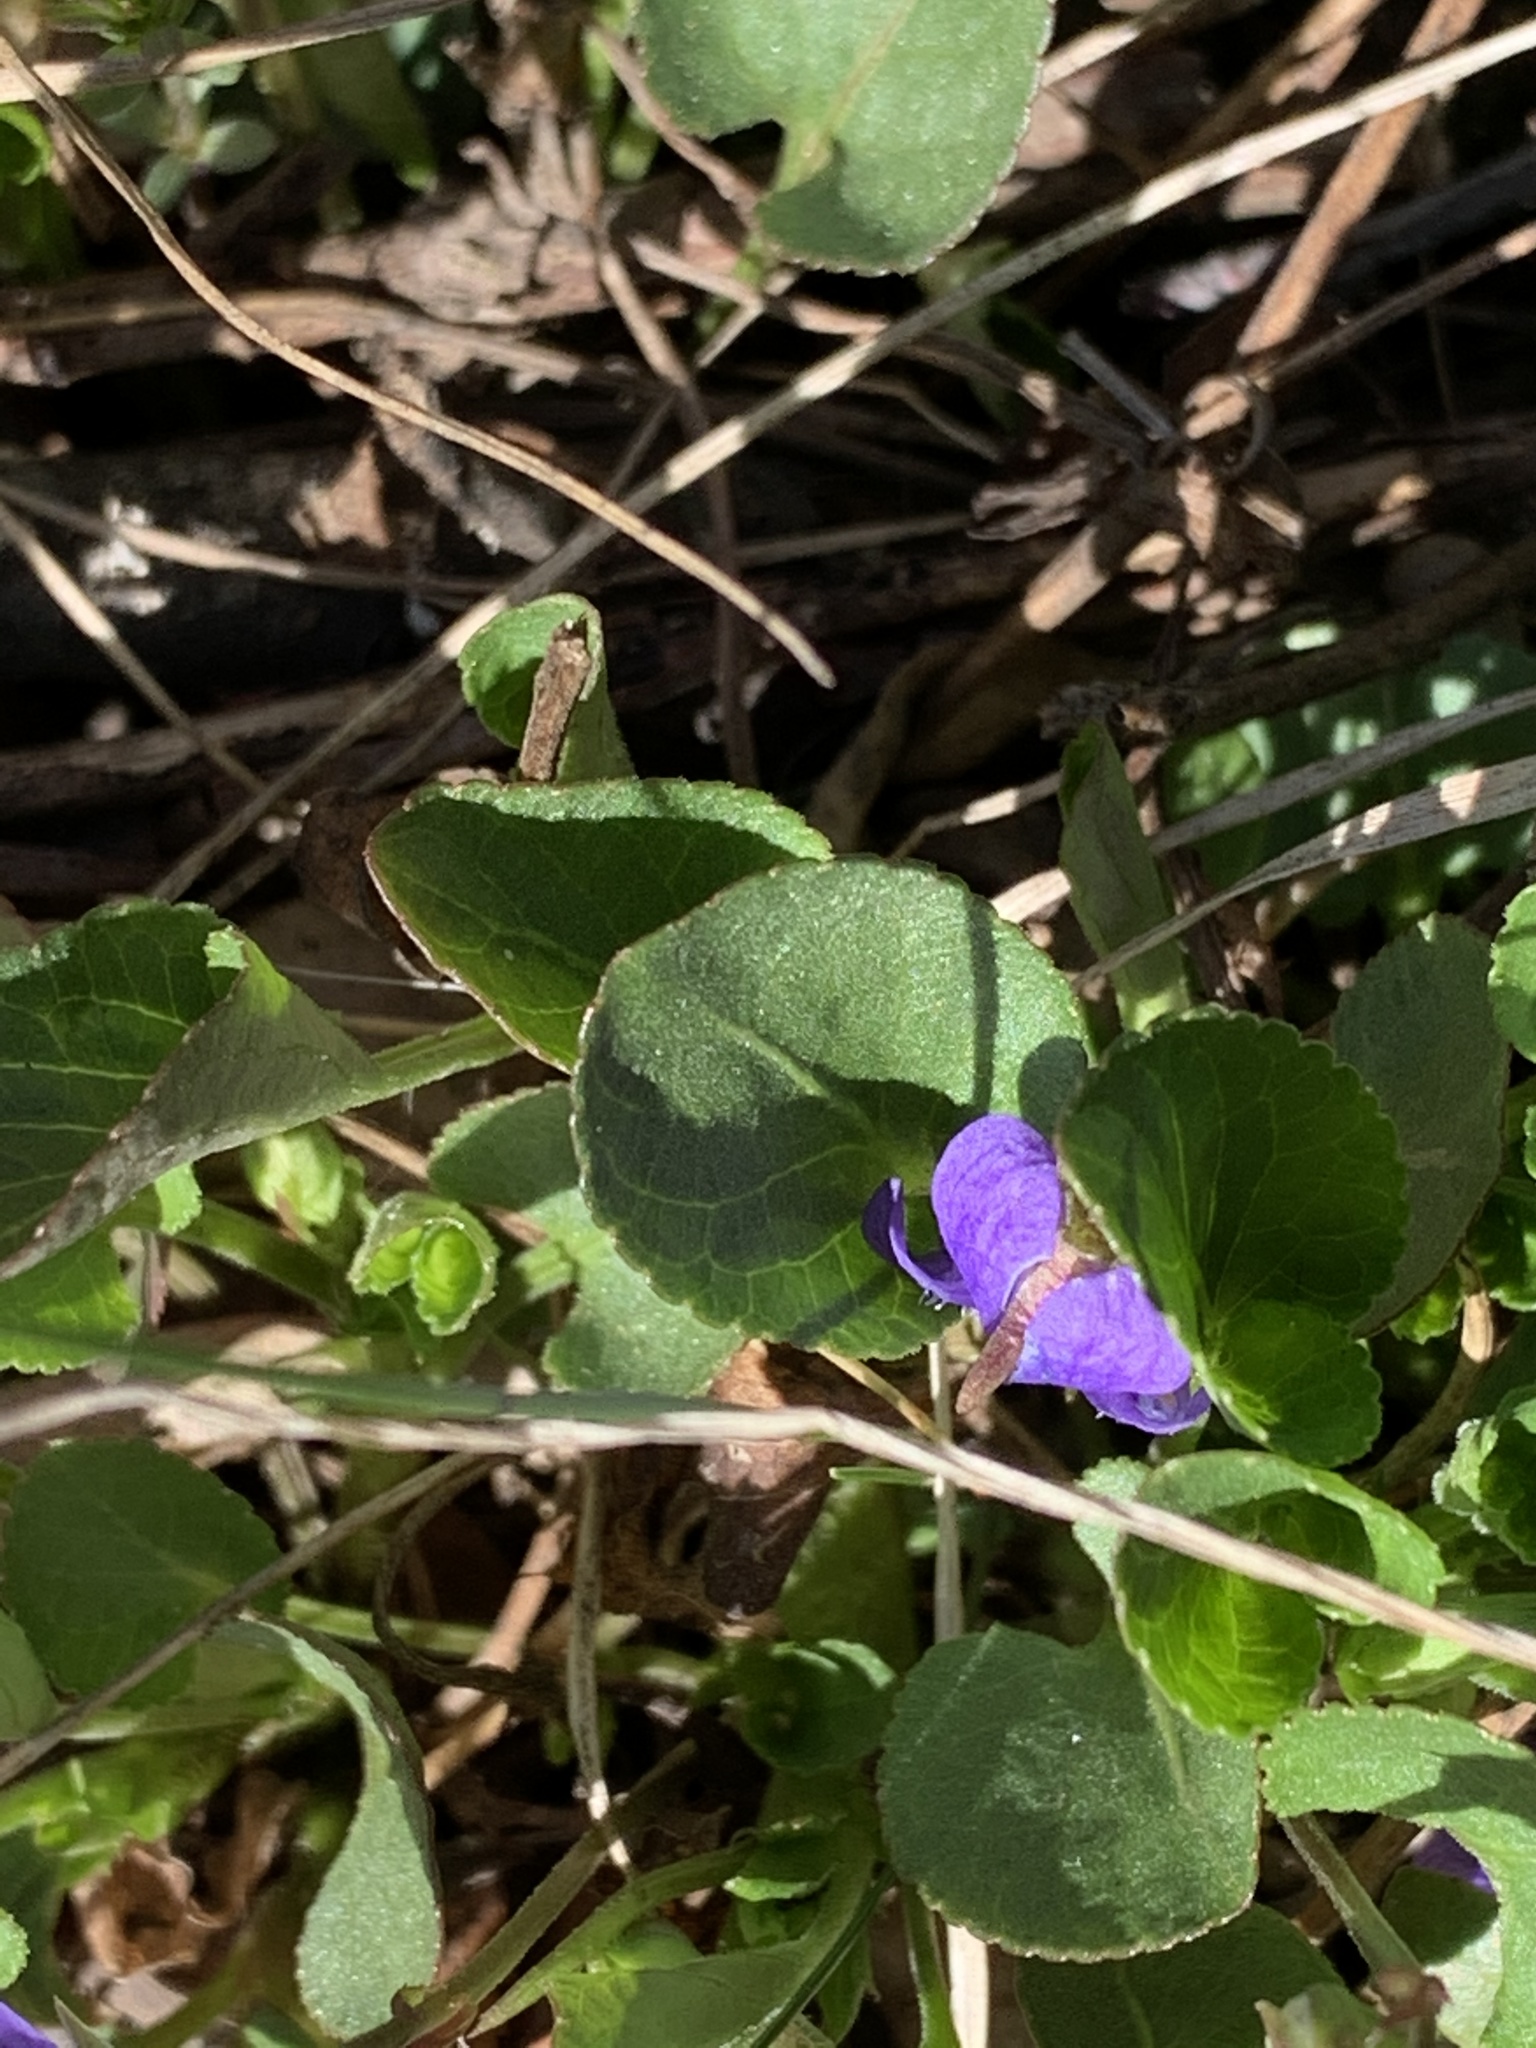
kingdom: Plantae
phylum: Tracheophyta
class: Magnoliopsida
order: Malpighiales
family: Violaceae
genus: Viola
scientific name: Viola adunca
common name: Sand violet
